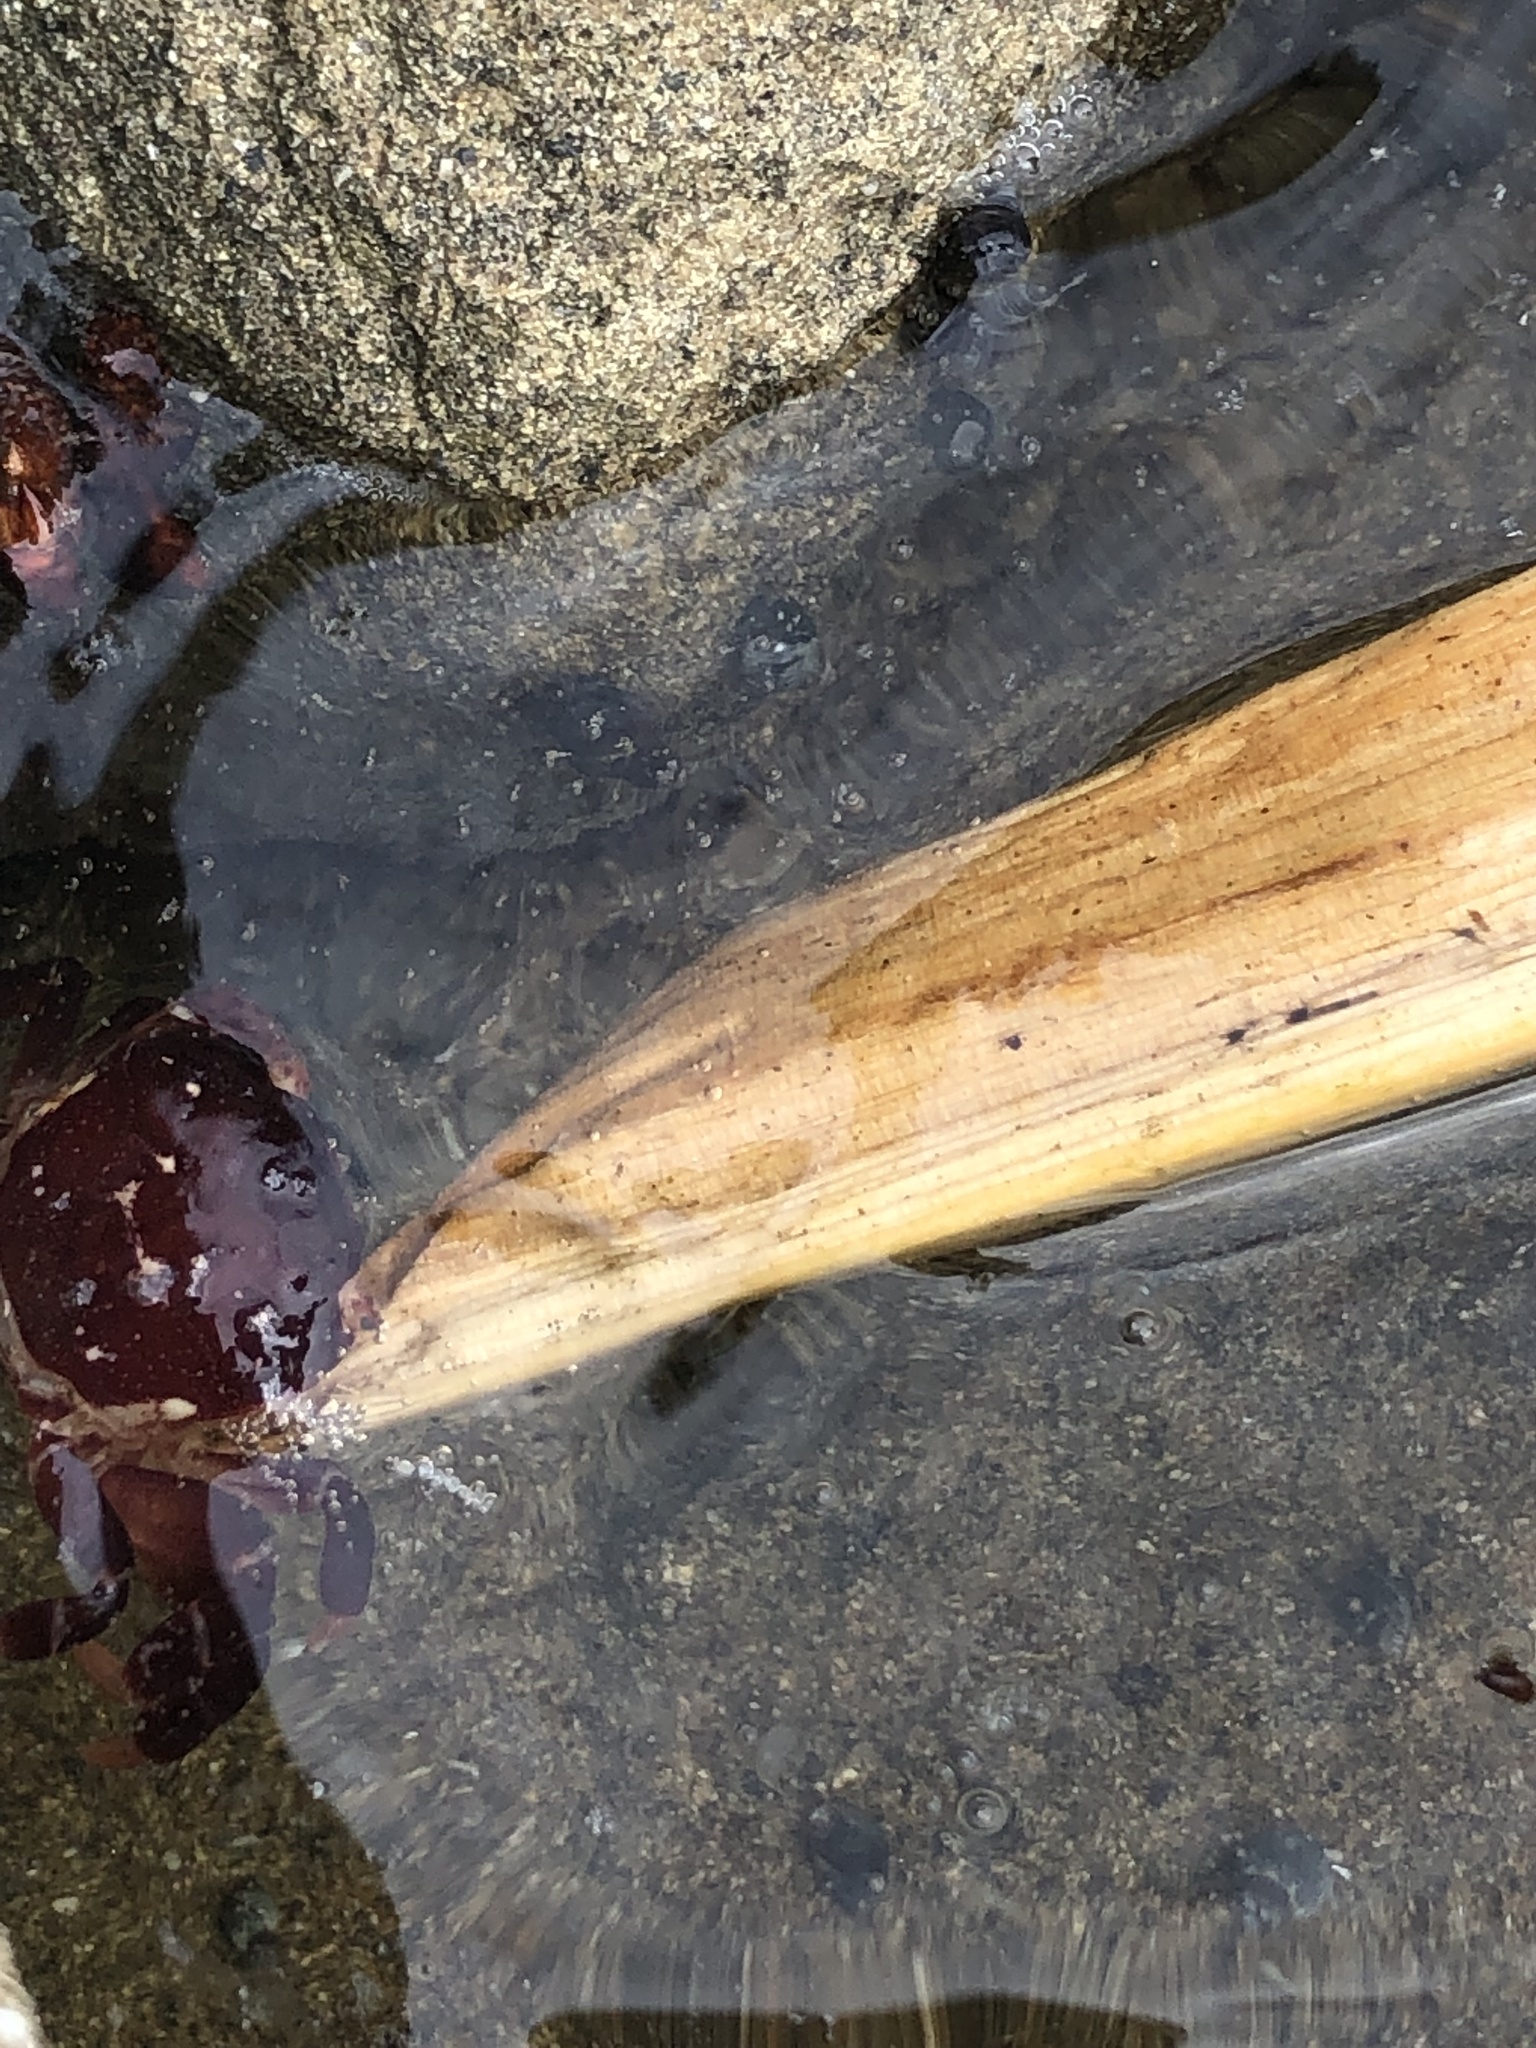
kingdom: Animalia
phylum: Arthropoda
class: Malacostraca
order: Decapoda
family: Varunidae
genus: Hemigrapsus
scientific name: Hemigrapsus nudus
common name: Purple shore crab
